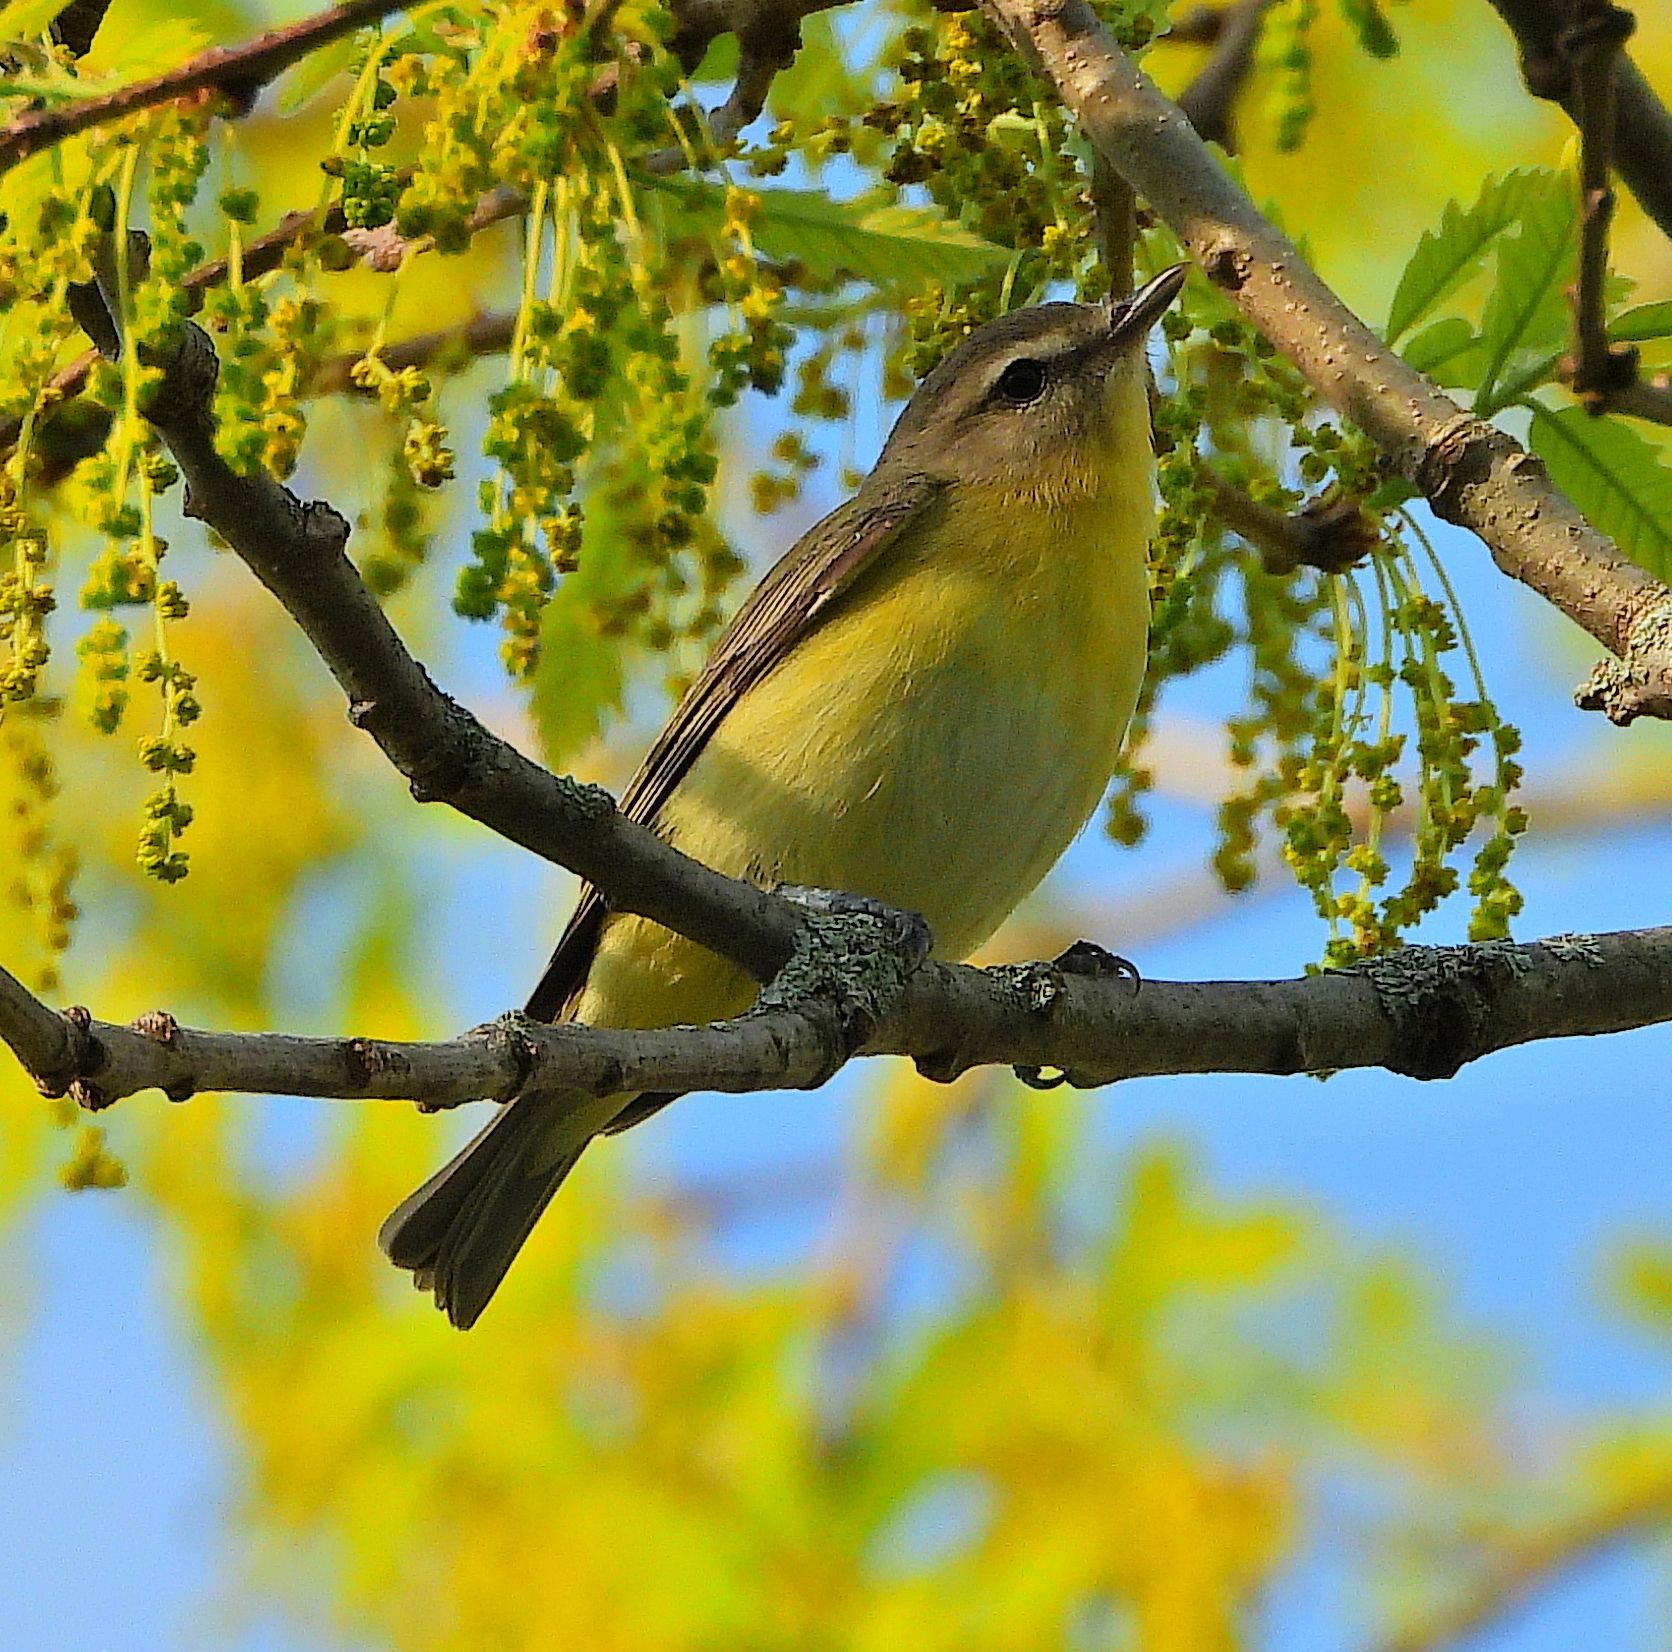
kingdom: Animalia
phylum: Chordata
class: Aves
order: Passeriformes
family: Vireonidae
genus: Vireo
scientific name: Vireo philadelphicus
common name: Philadelphia vireo
